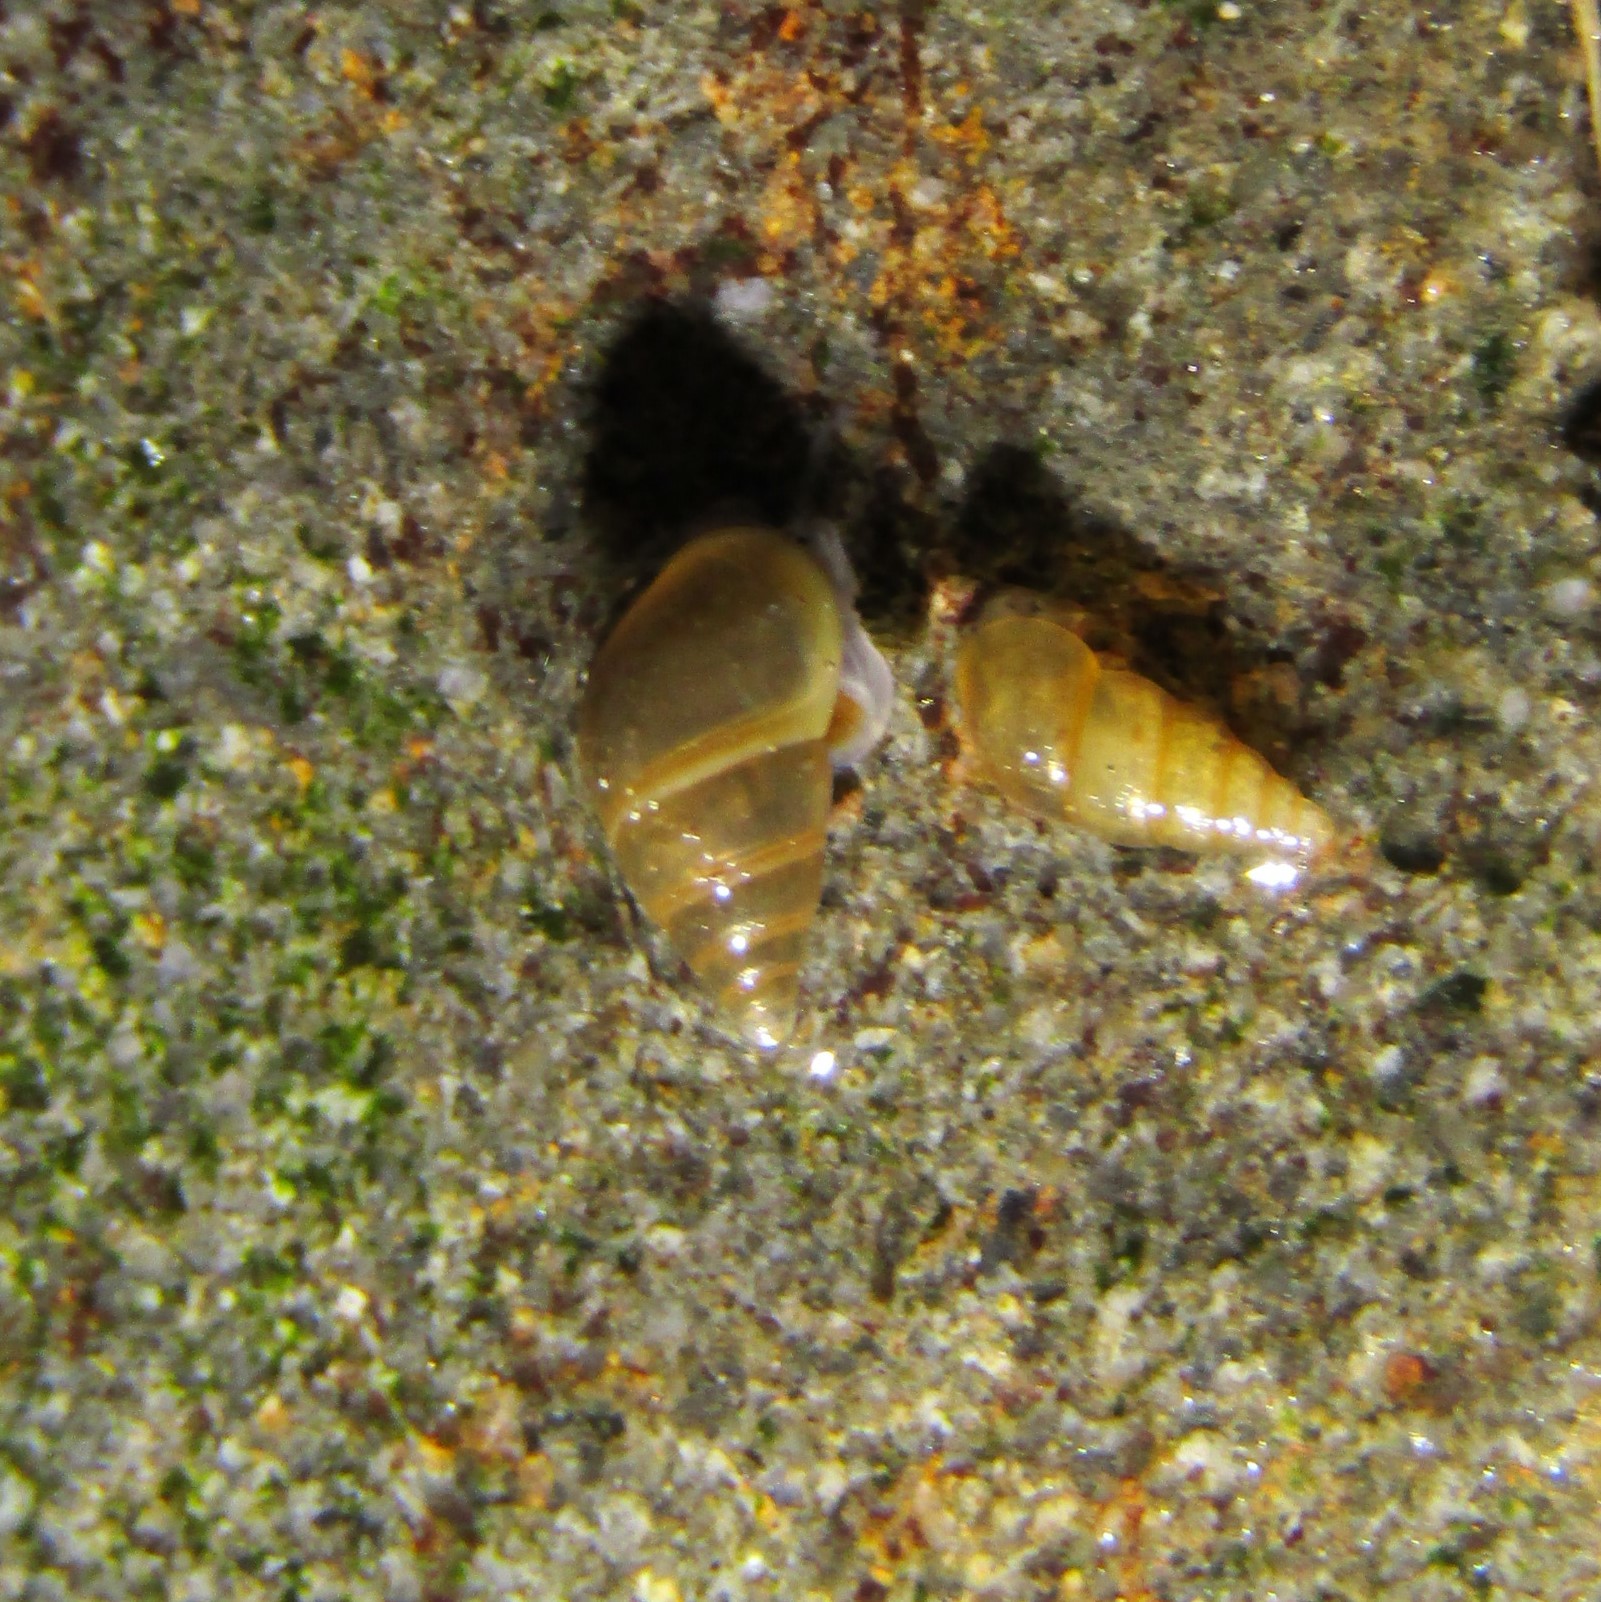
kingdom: Animalia
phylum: Mollusca
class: Gastropoda
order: Littorinimorpha
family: Tateidae
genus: Potamopyrgus
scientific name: Potamopyrgus antipodarum
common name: Jenkins' spire snail
